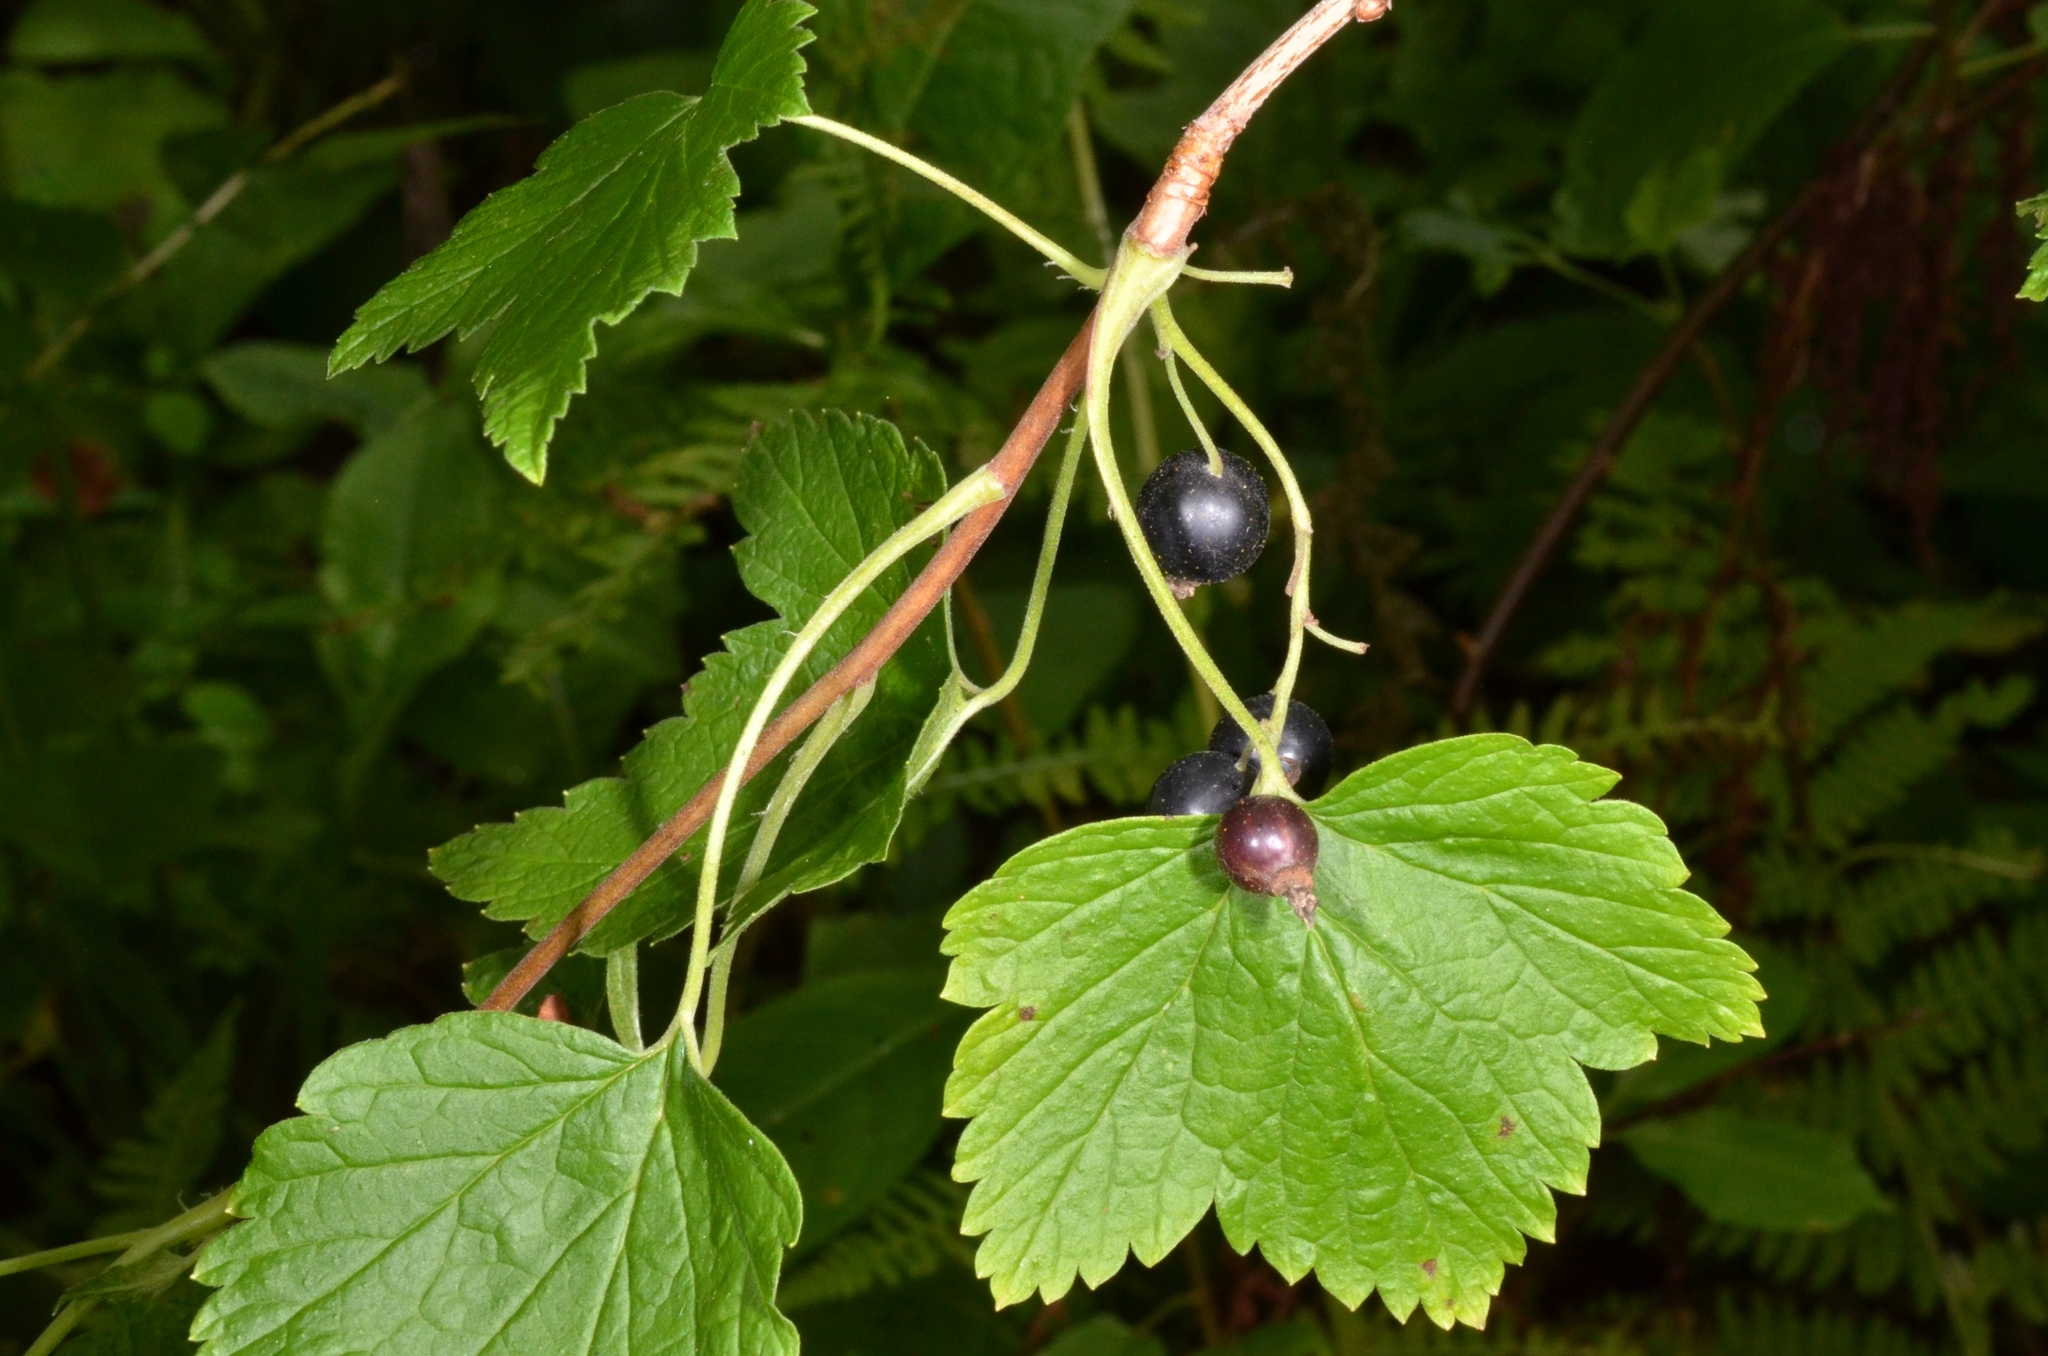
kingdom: Plantae
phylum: Tracheophyta
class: Magnoliopsida
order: Saxifragales
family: Grossulariaceae
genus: Ribes
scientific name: Ribes nigrum
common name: Black currant
